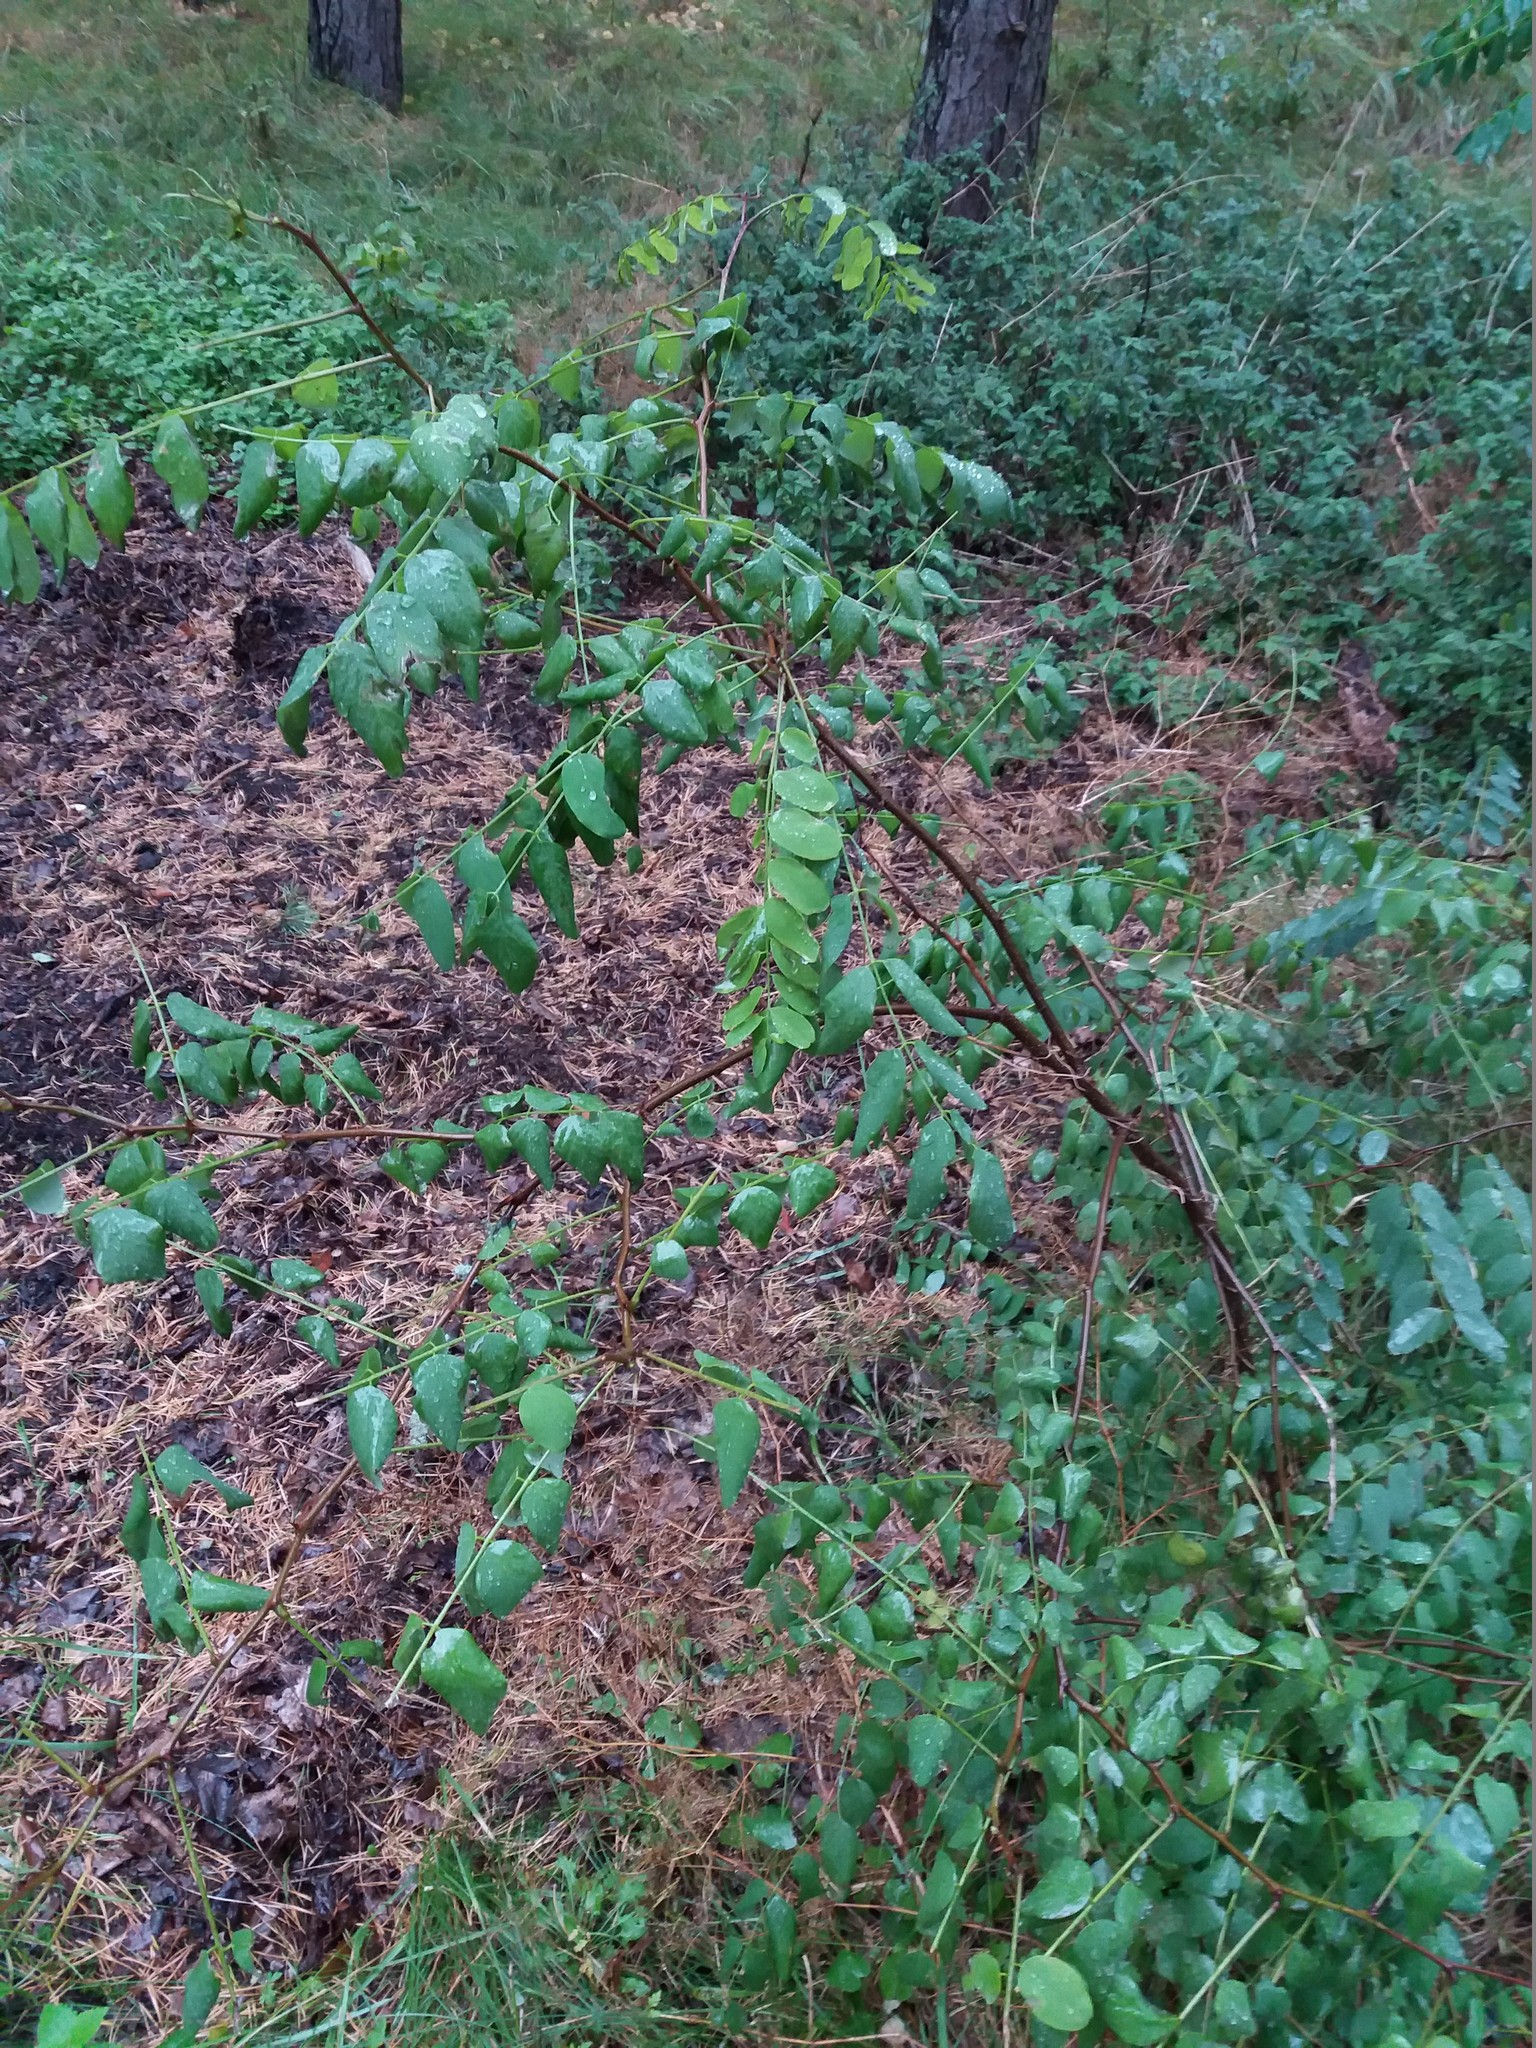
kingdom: Plantae
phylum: Tracheophyta
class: Magnoliopsida
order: Fabales
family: Fabaceae
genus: Robinia
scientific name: Robinia pseudoacacia
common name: Black locust
